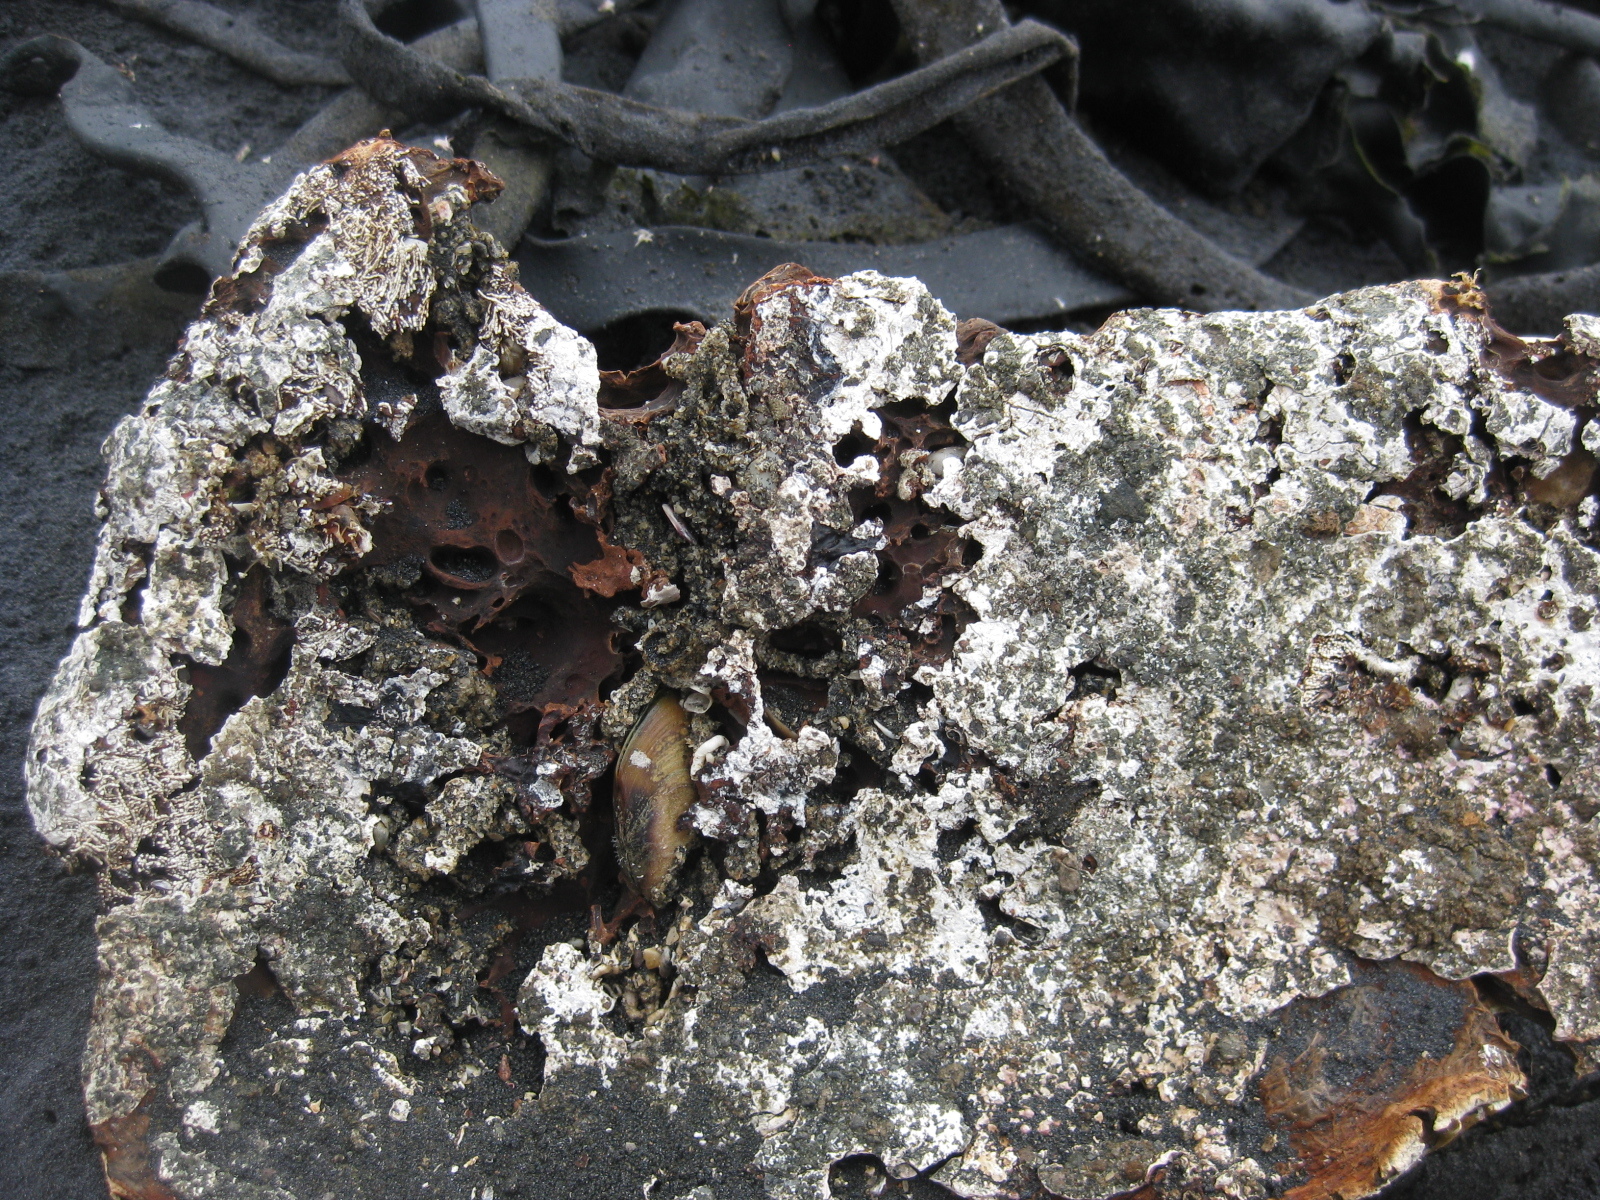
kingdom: Animalia
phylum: Mollusca
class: Bivalvia
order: Mytilida
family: Mytilidae
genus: Perna
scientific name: Perna canaliculus
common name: New zealand greenshelltm
